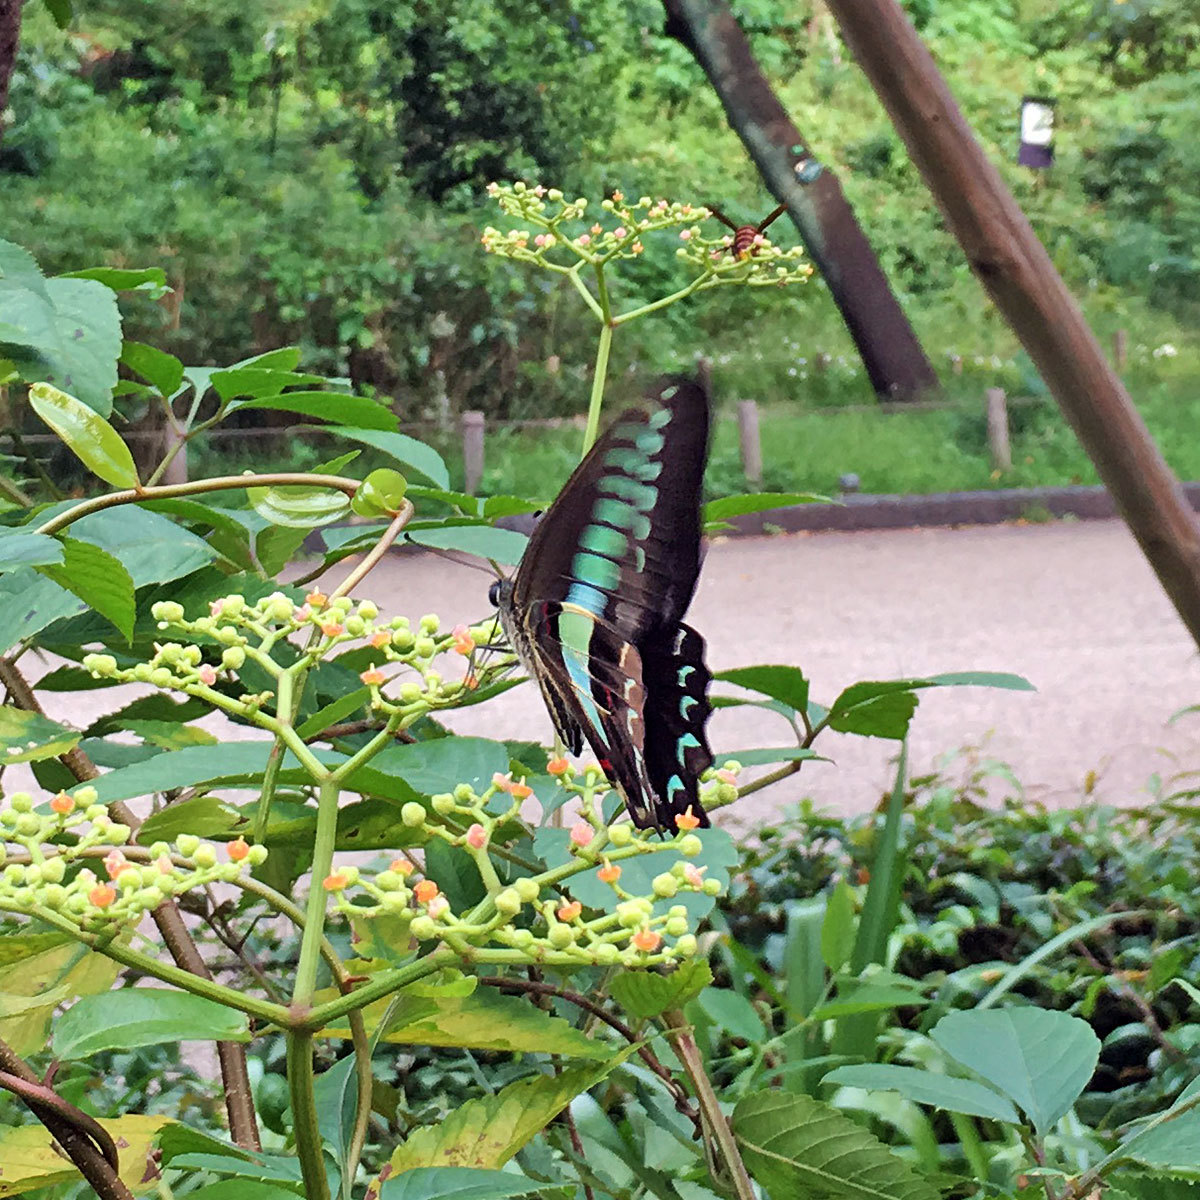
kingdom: Fungi
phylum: Ascomycota
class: Sordariomycetes
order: Microascales
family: Microascaceae
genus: Graphium
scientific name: Graphium sarpedon
